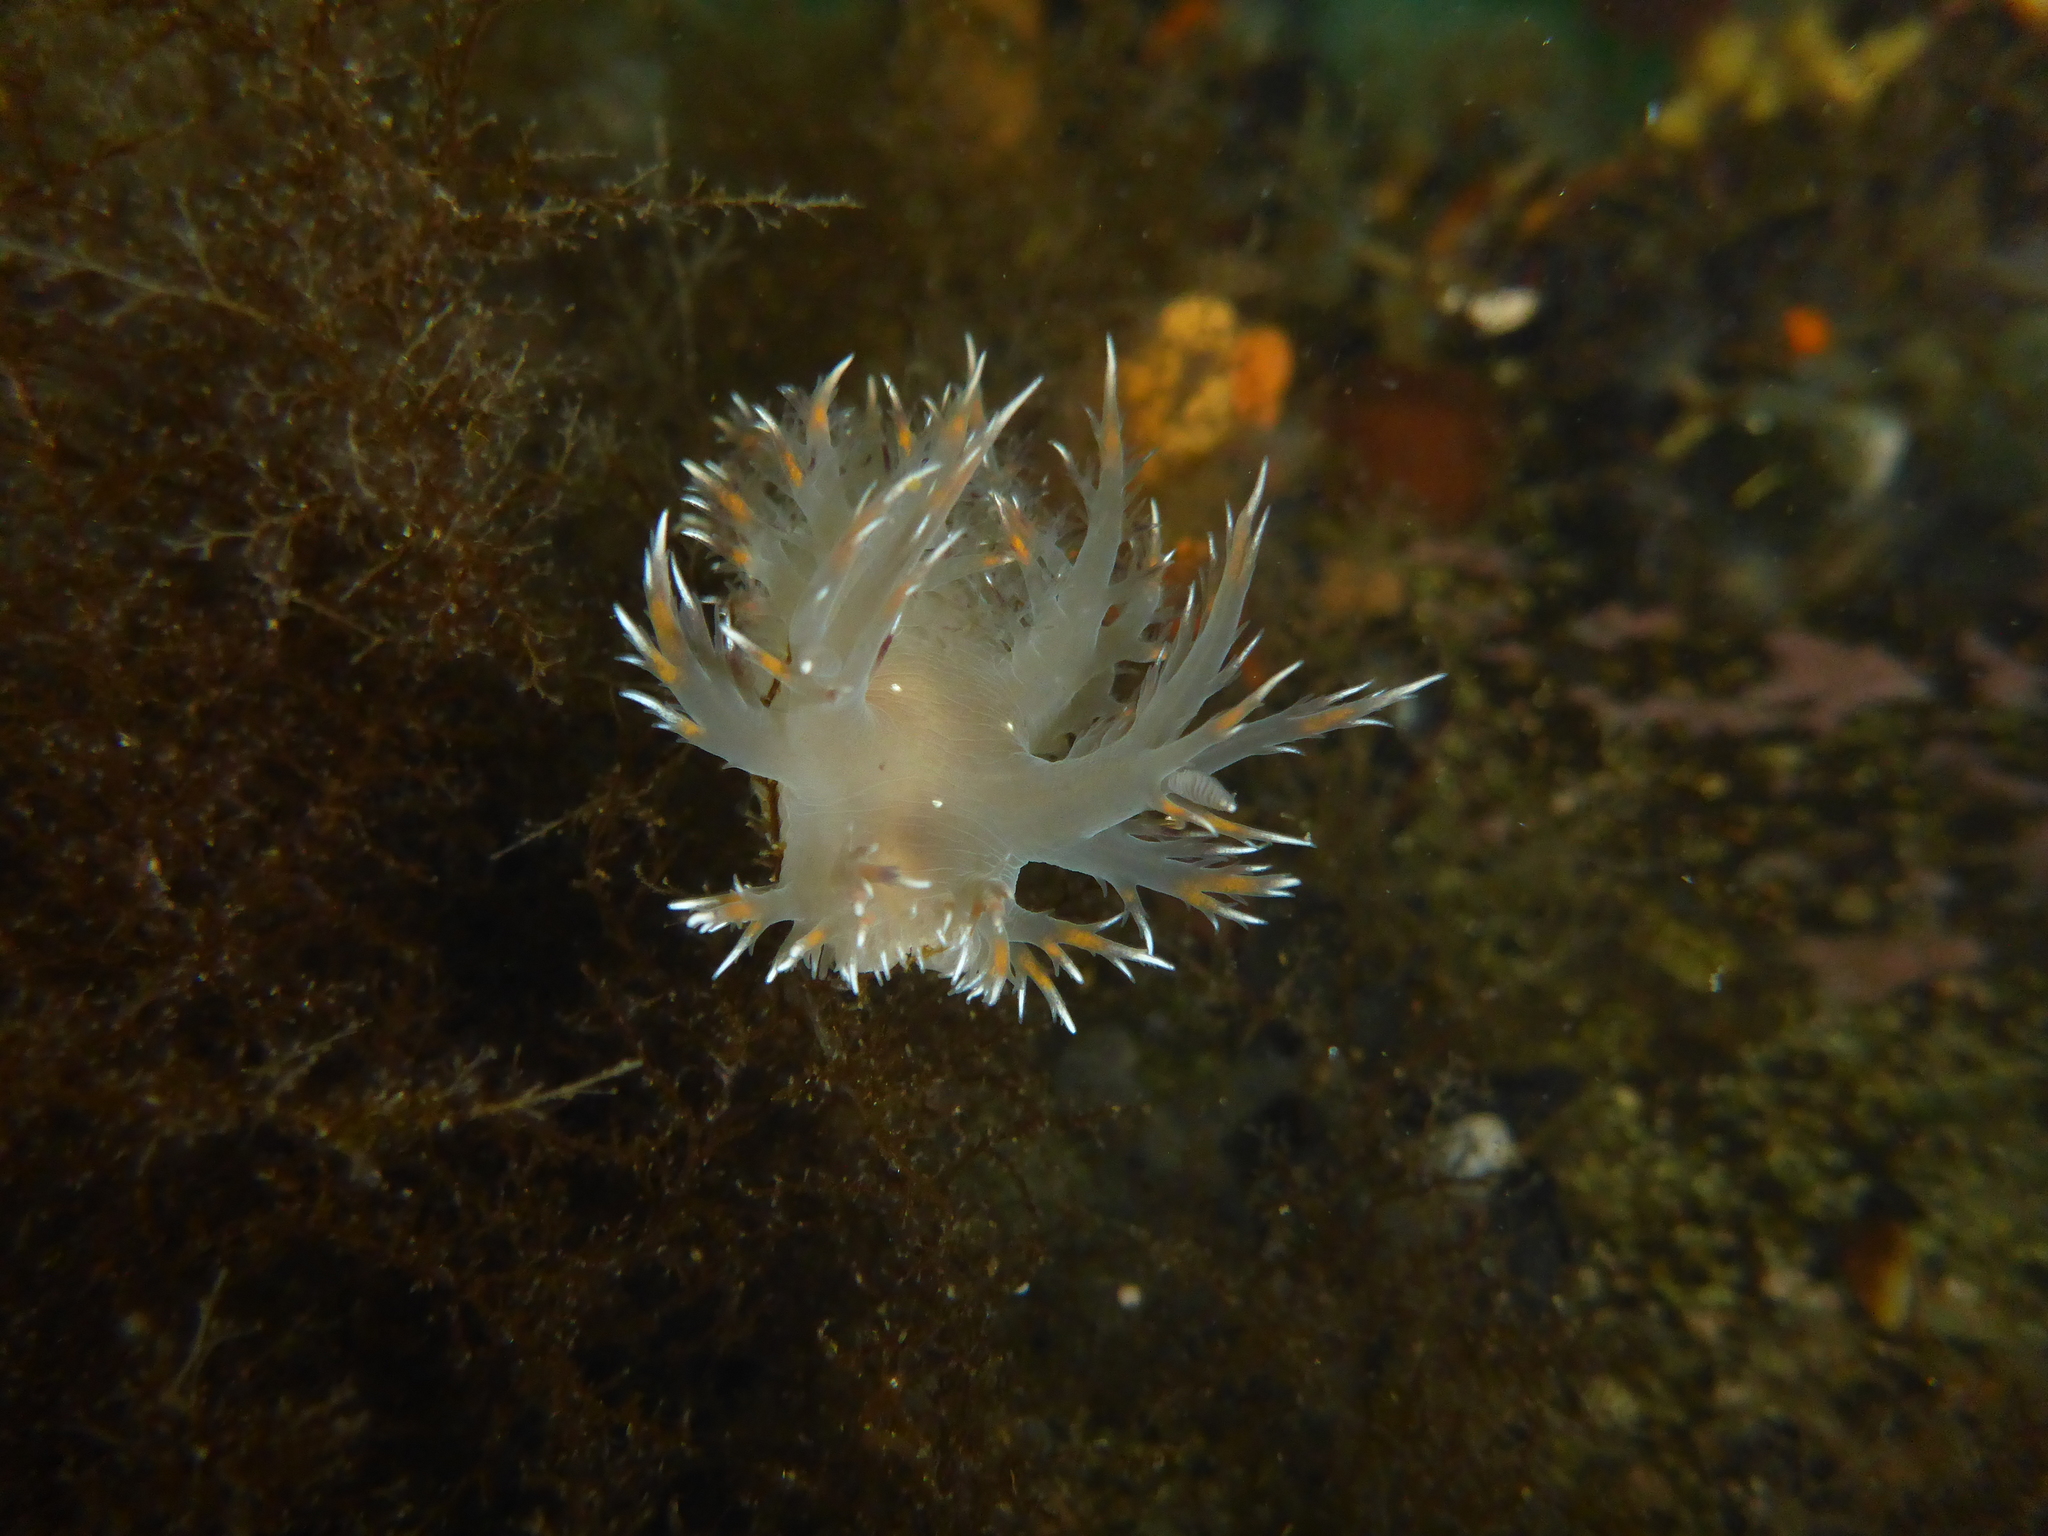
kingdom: Animalia
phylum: Mollusca
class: Gastropoda
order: Nudibranchia
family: Dendronotidae
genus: Dendronotus
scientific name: Dendronotus iris
